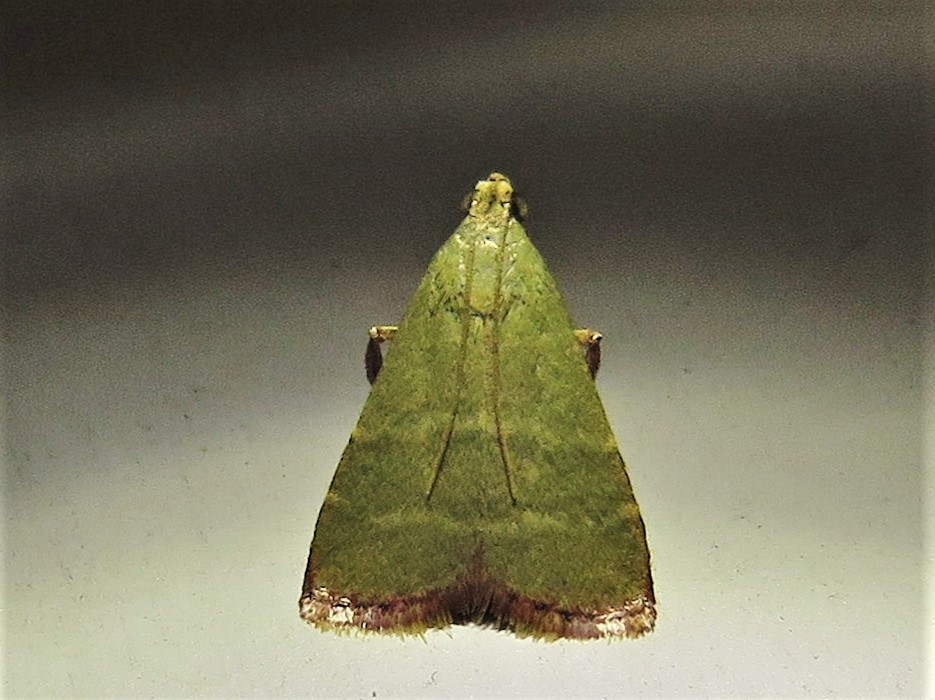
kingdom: Animalia
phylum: Arthropoda
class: Insecta
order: Lepidoptera
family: Pyralidae
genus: Arta
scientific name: Arta olivalis
